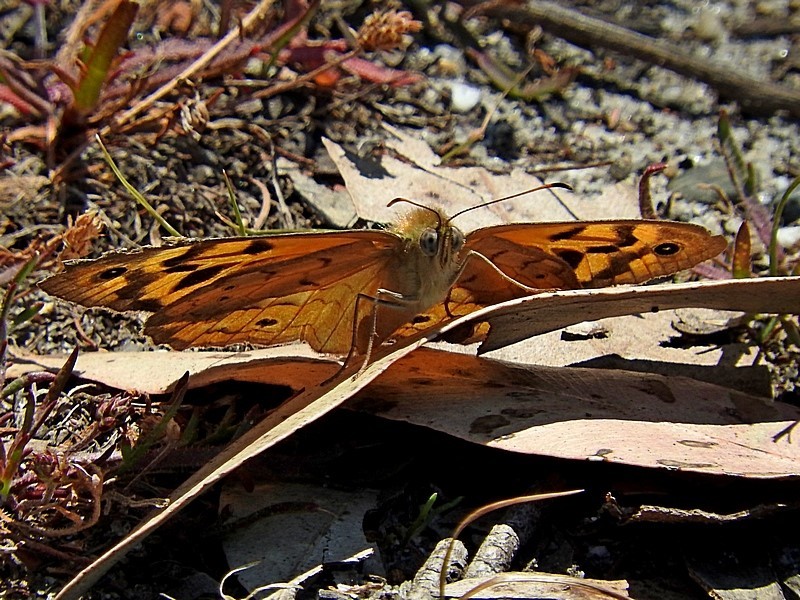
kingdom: Animalia
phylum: Arthropoda
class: Insecta
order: Lepidoptera
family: Nymphalidae
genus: Heteronympha
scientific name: Heteronympha merope
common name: Common brown
